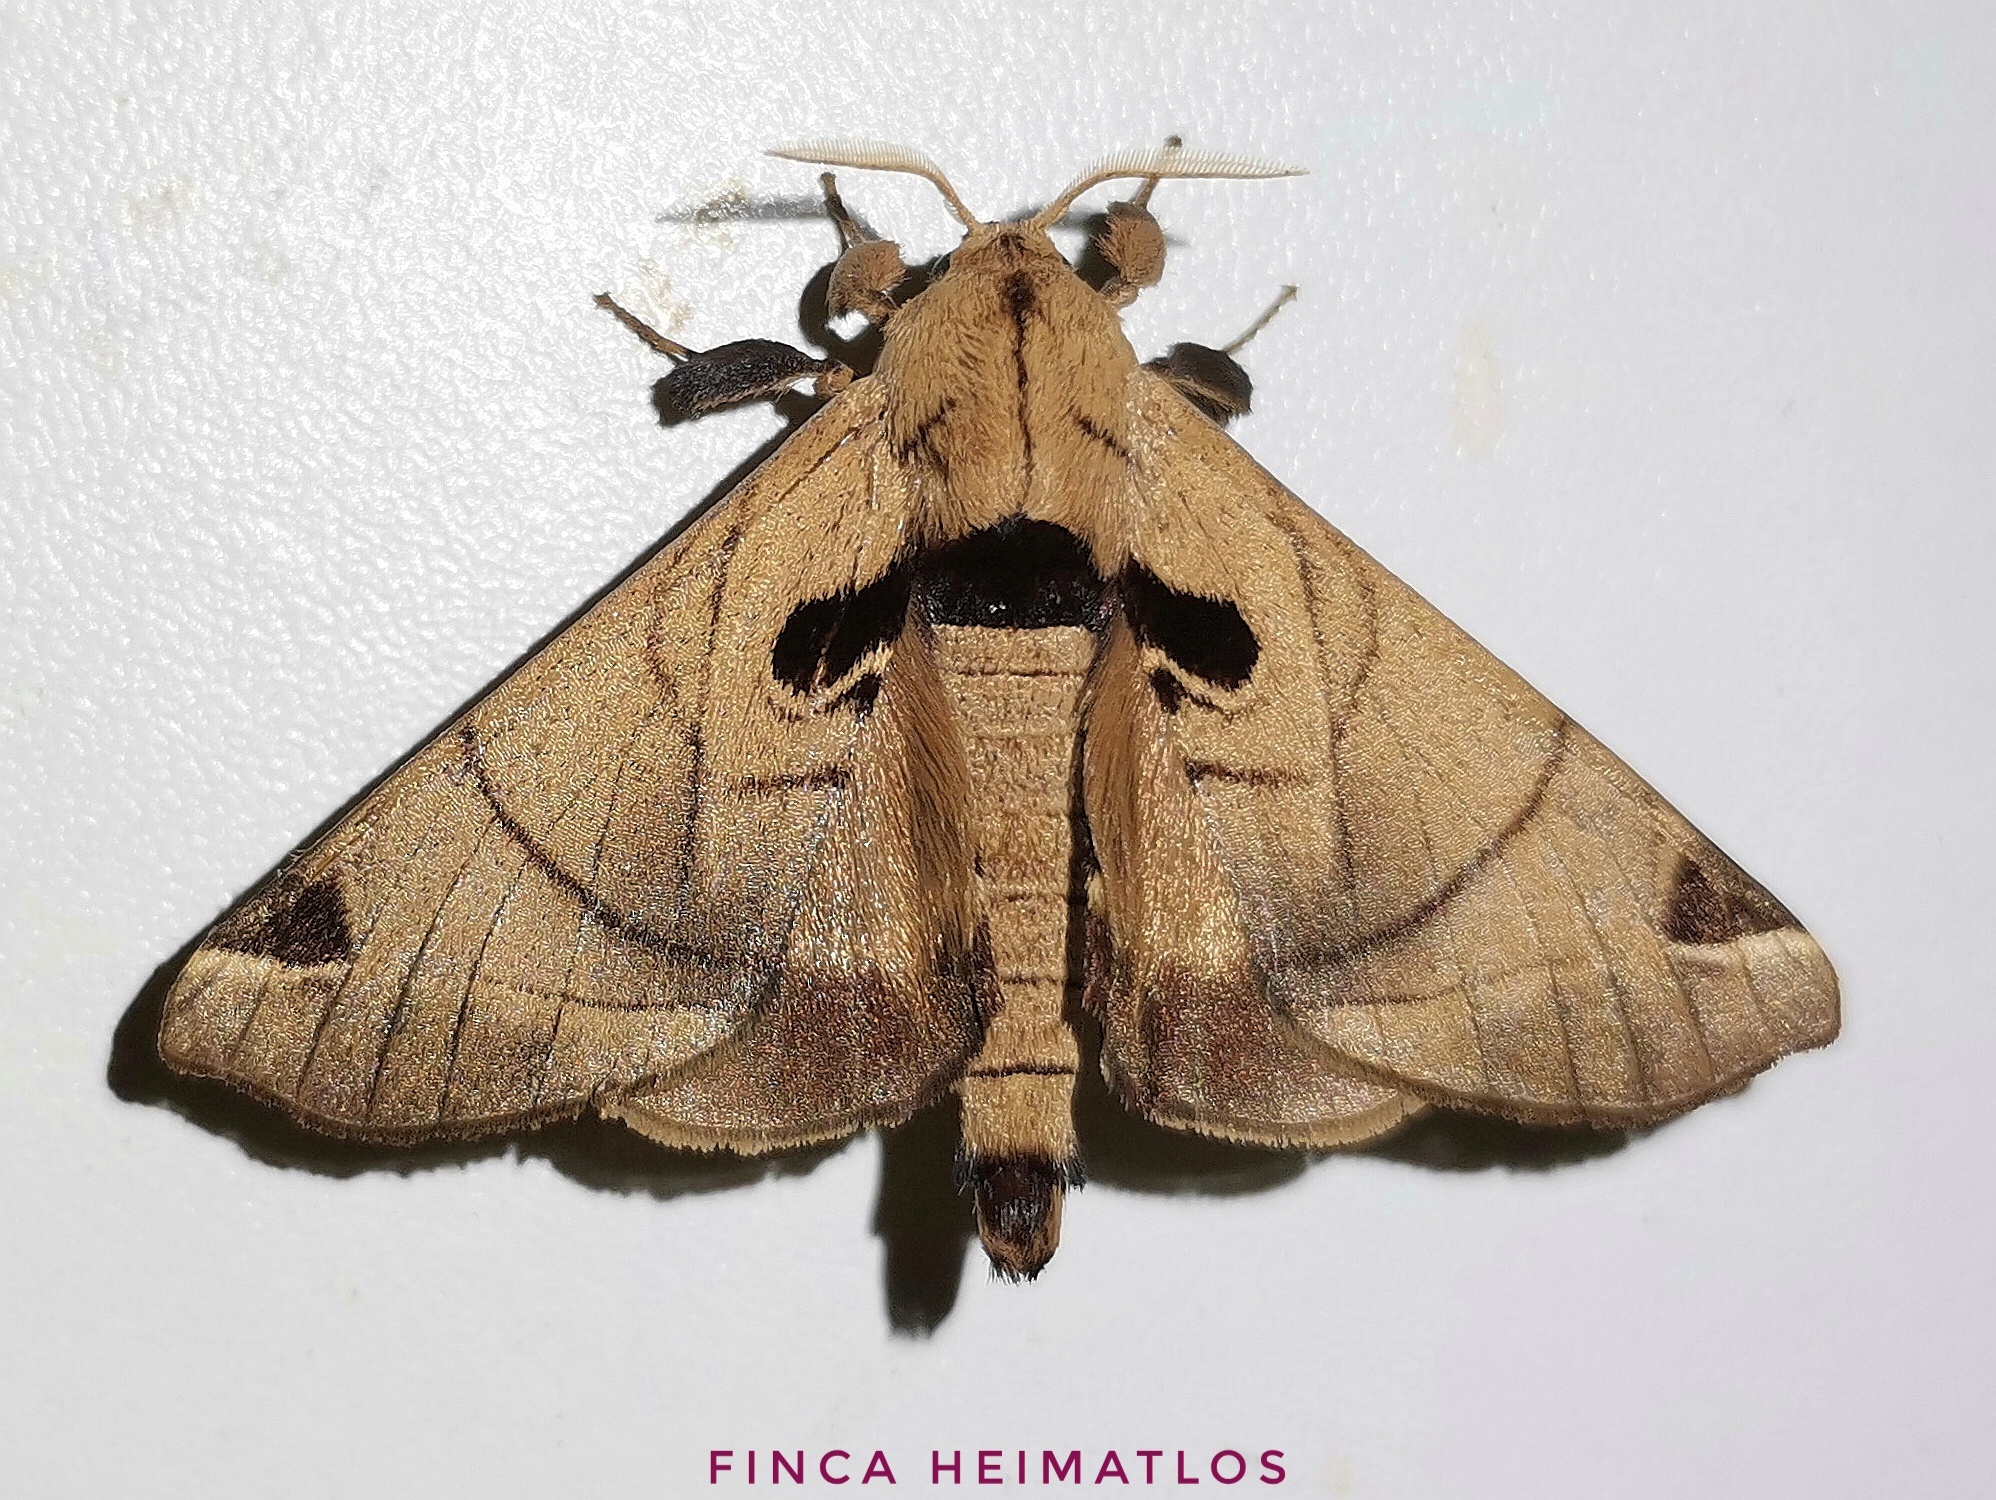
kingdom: Animalia
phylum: Arthropoda
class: Insecta
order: Lepidoptera
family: Apatelodidae
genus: Hygrochroa
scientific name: Hygrochroa Apatelodes pandarioides
